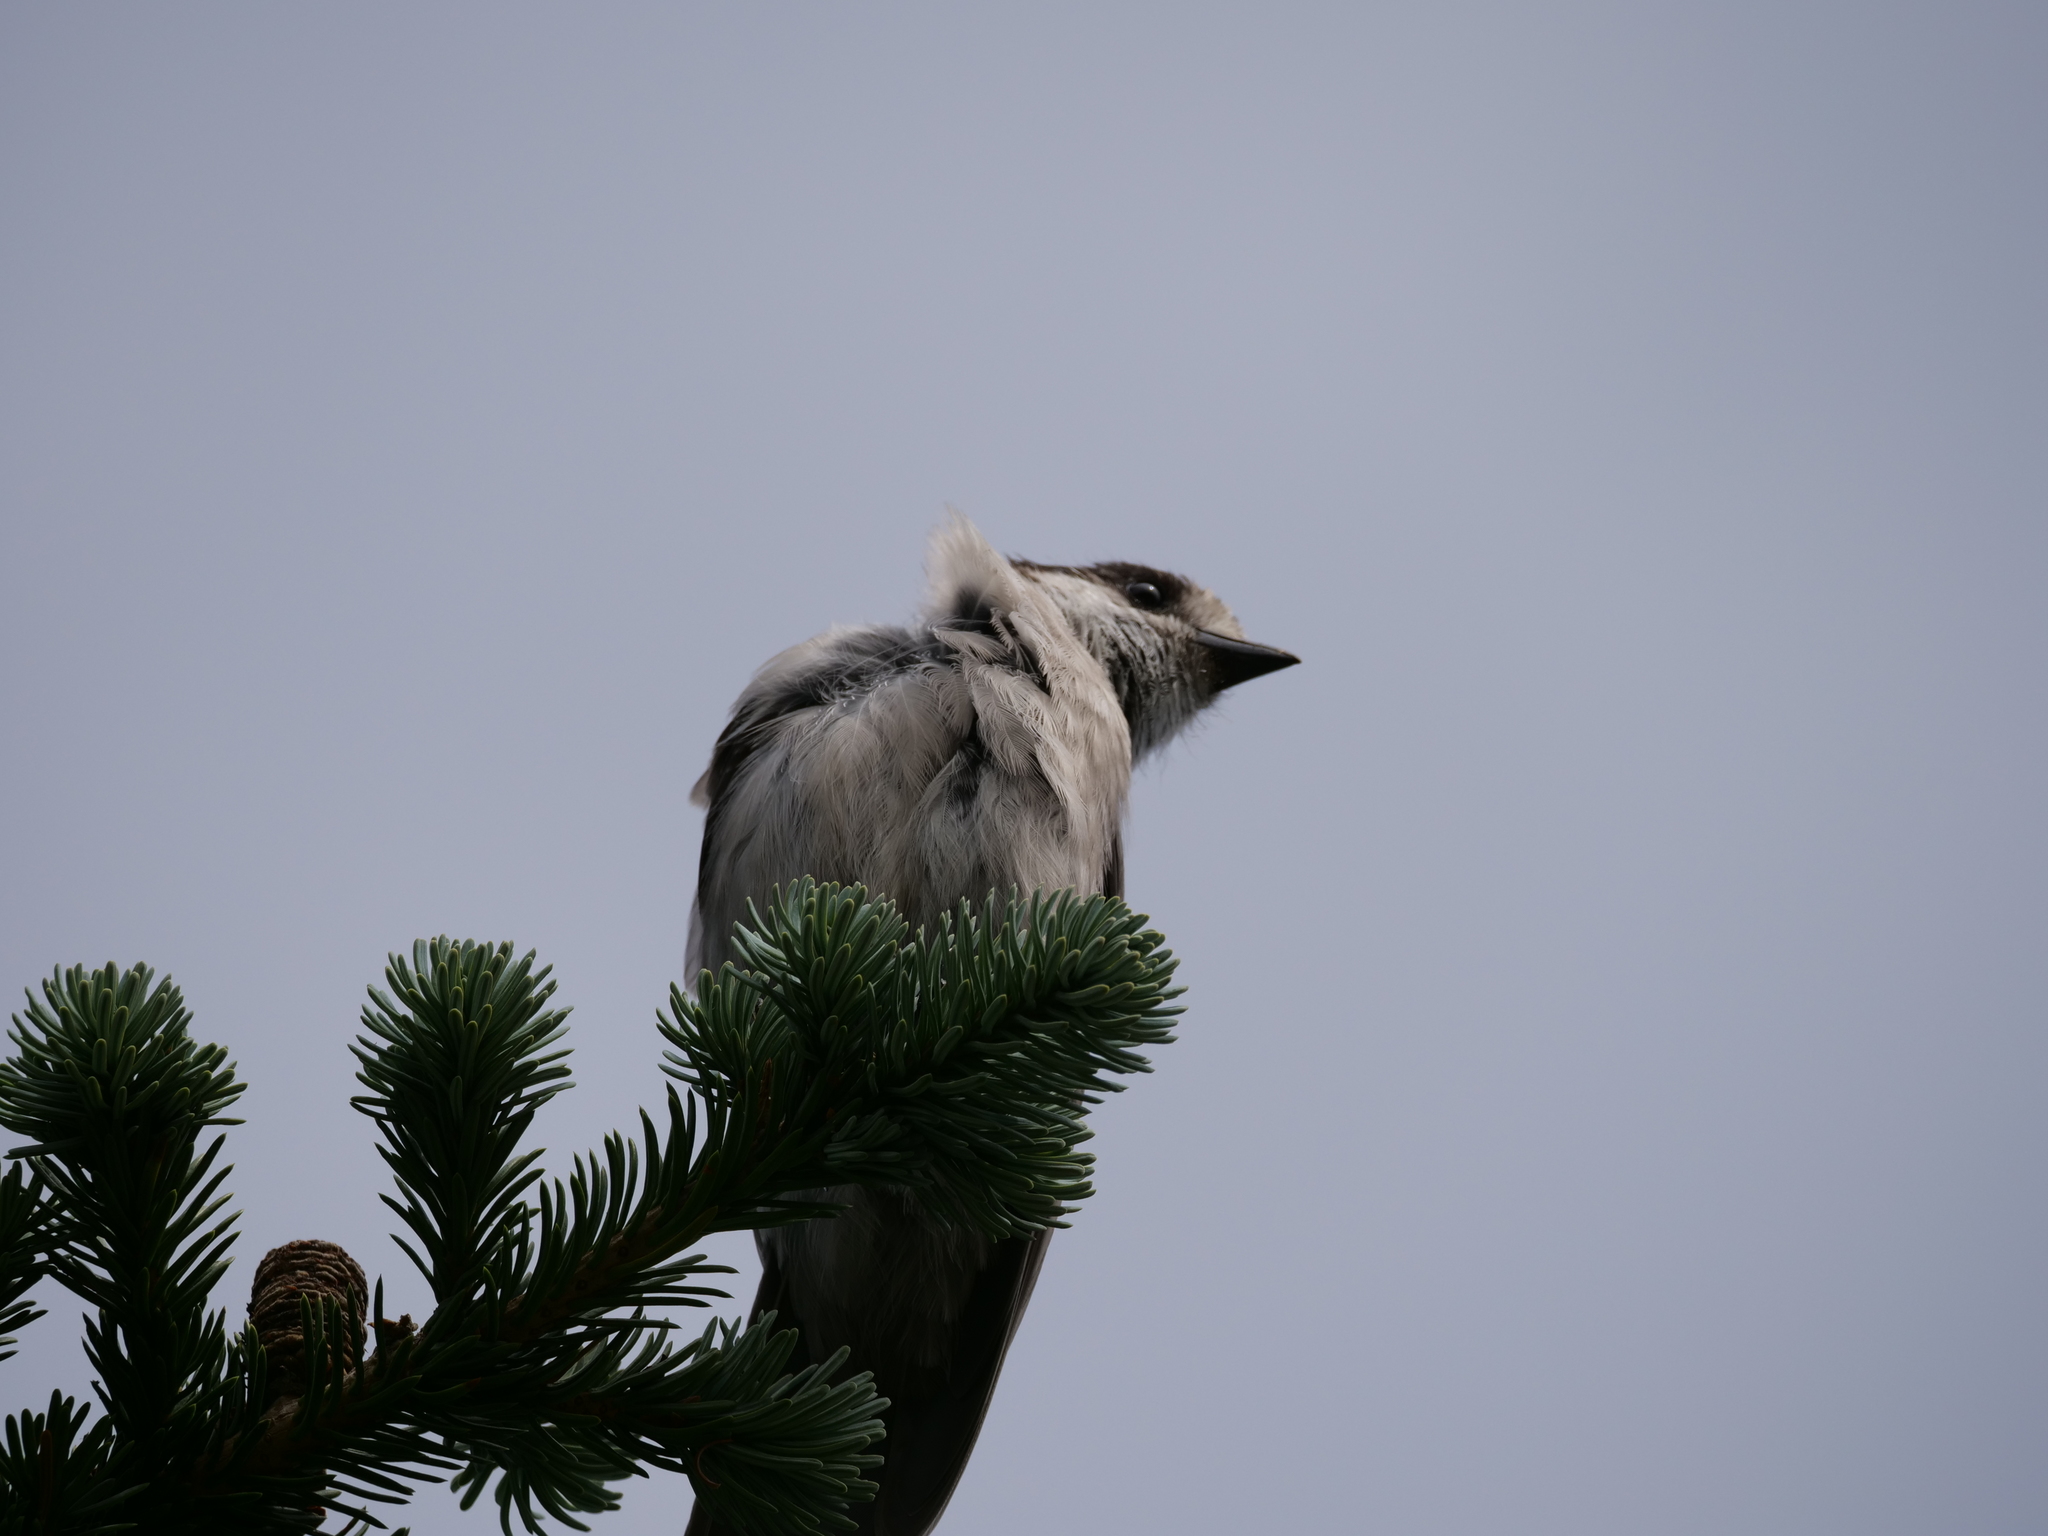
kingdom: Animalia
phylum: Chordata
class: Aves
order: Passeriformes
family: Corvidae
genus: Perisoreus
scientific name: Perisoreus canadensis
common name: Gray jay
